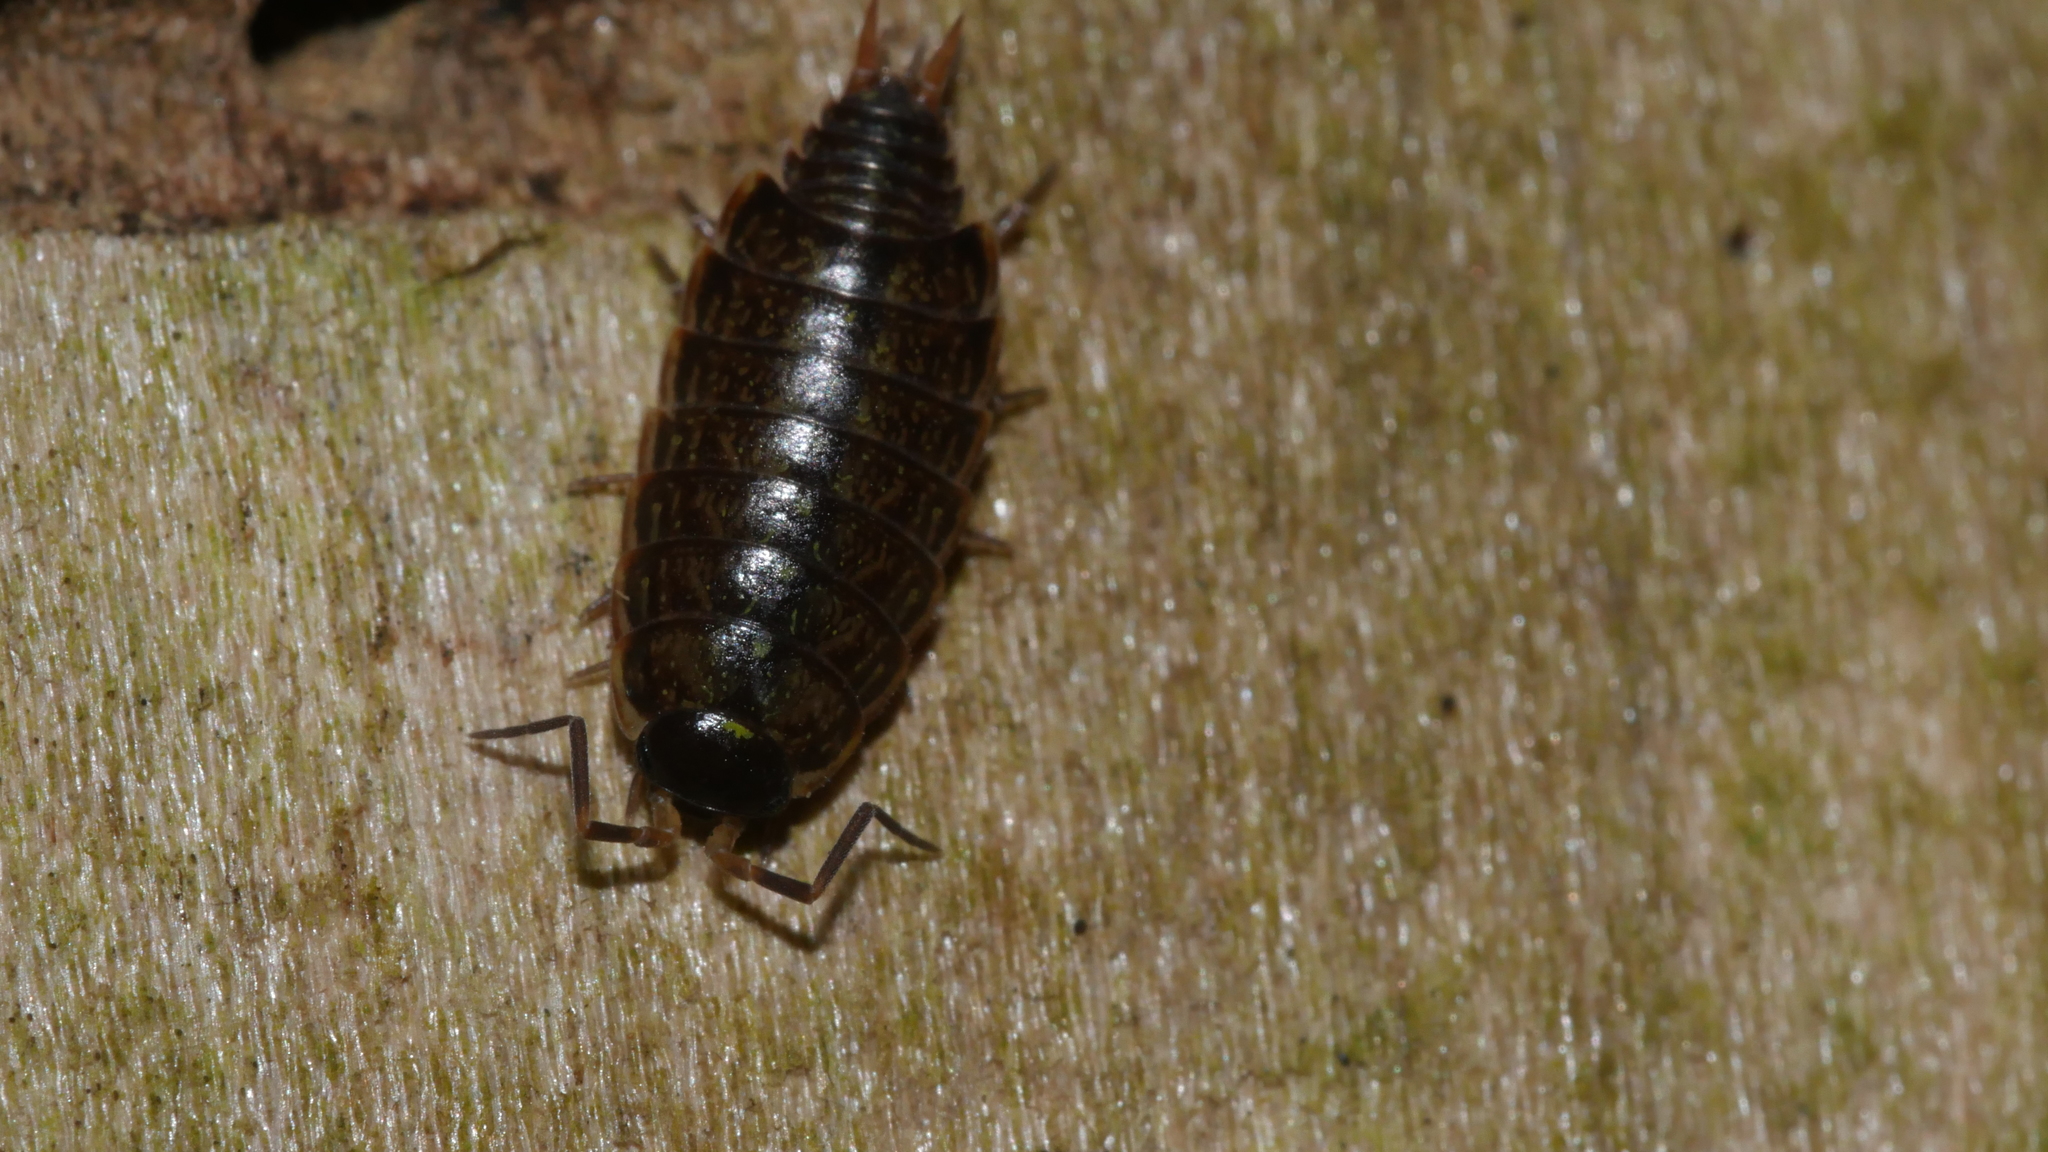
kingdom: Animalia
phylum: Arthropoda
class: Malacostraca
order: Isopoda
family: Philosciidae
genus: Philoscia
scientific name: Philoscia muscorum
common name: Common striped woodlouse
